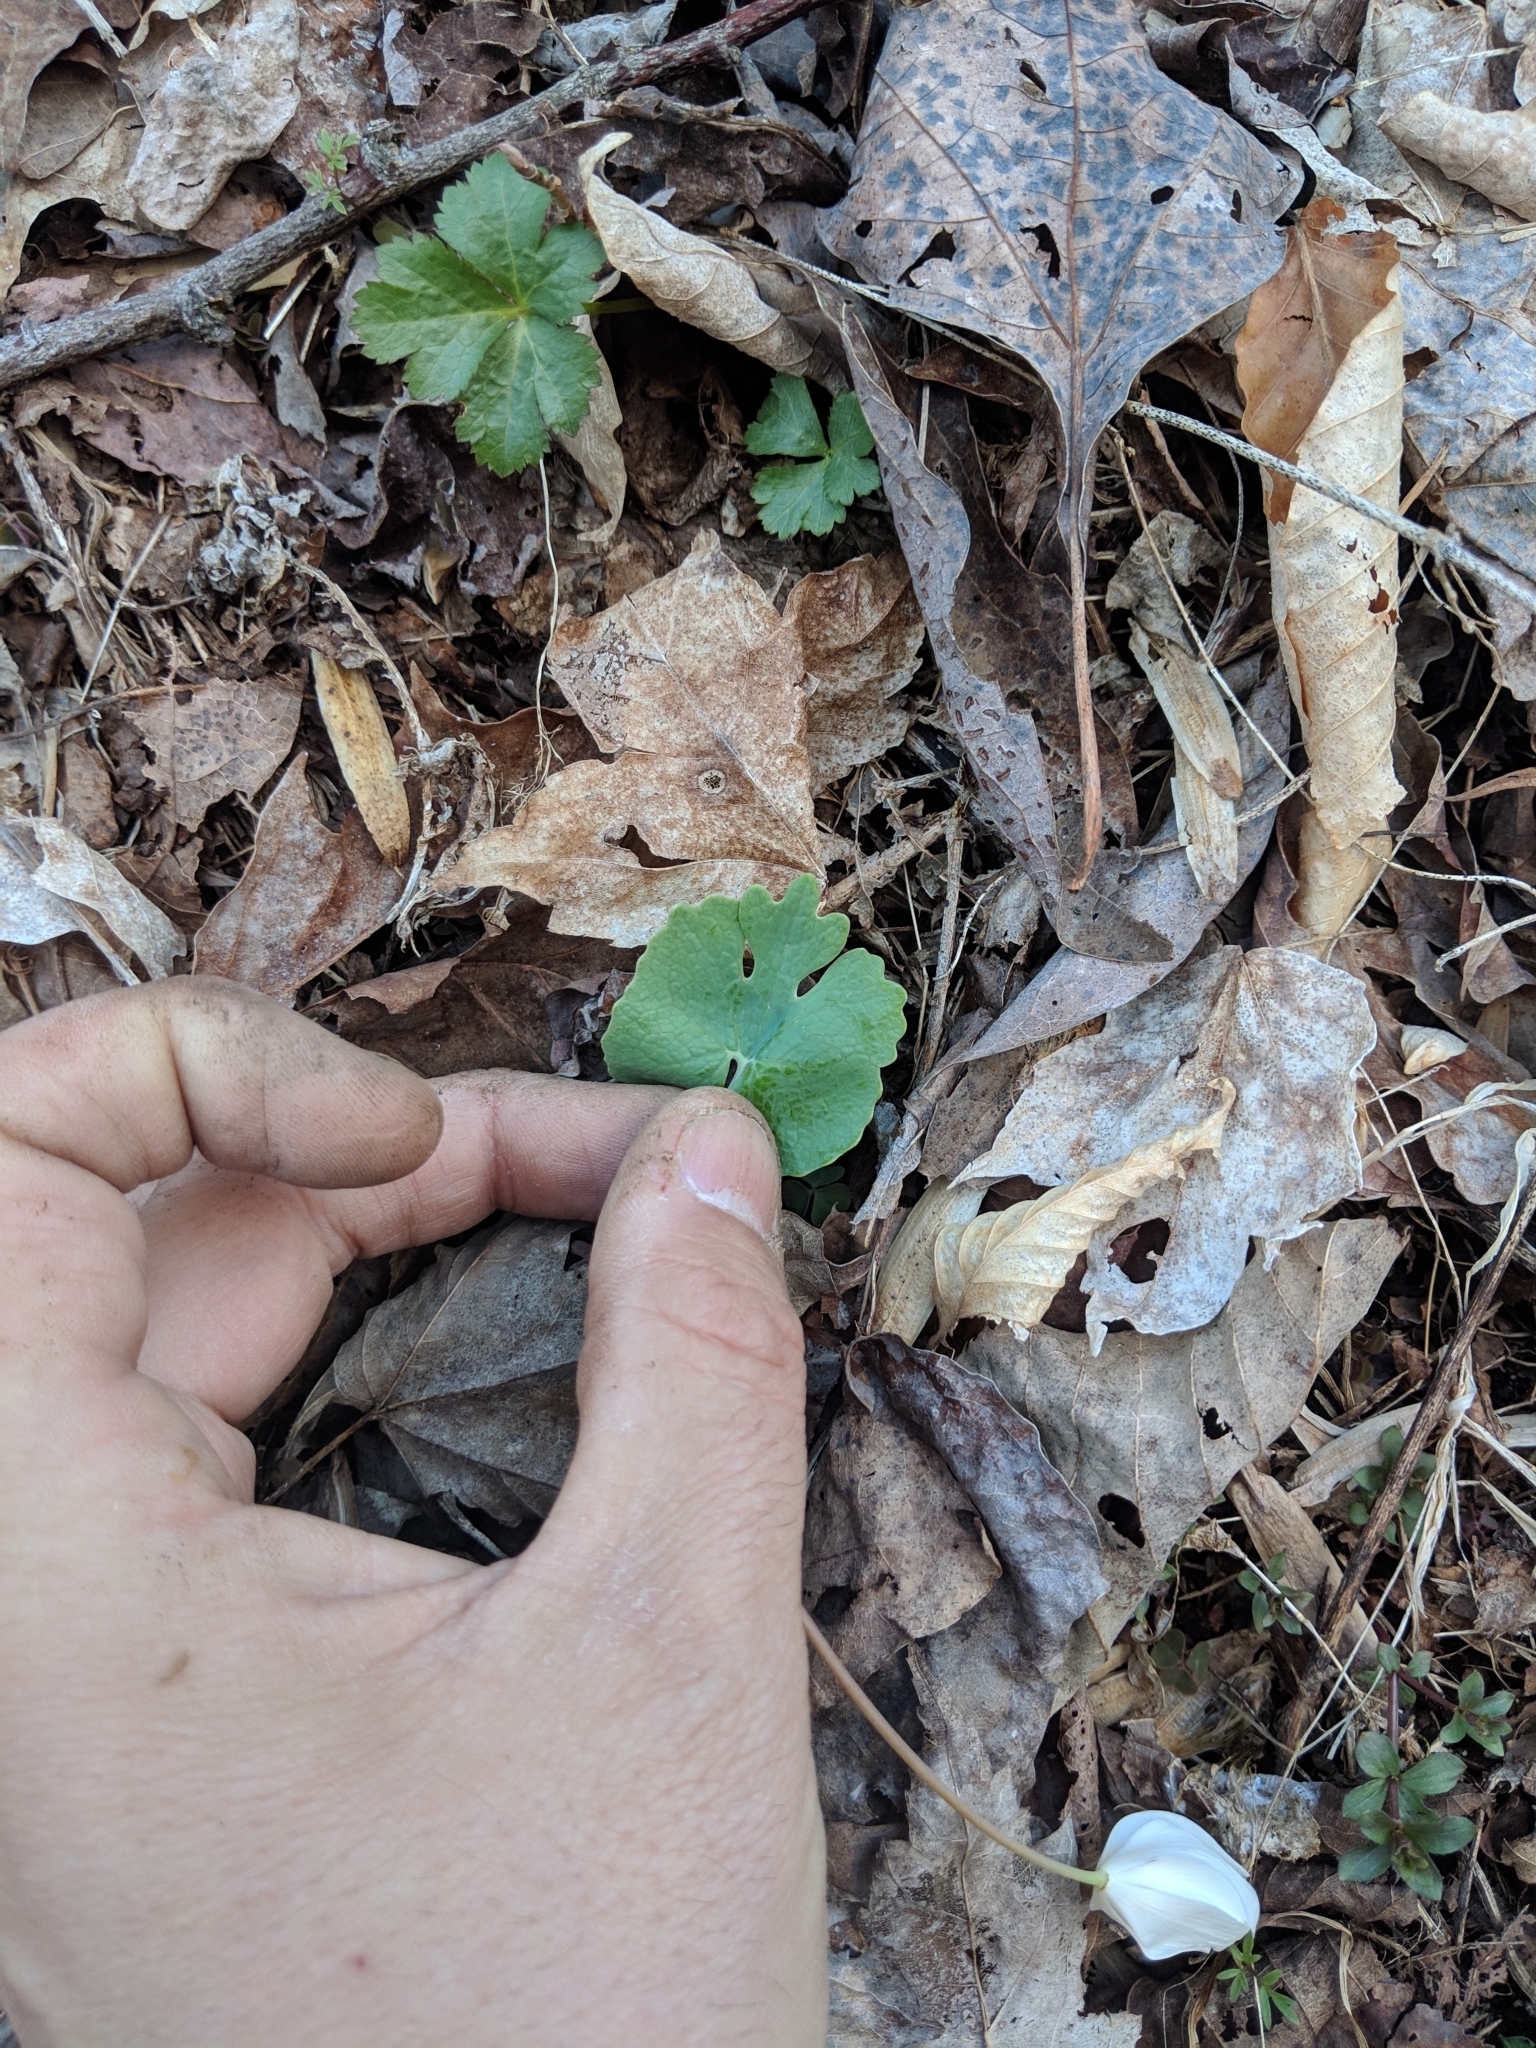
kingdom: Plantae
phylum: Tracheophyta
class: Magnoliopsida
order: Ranunculales
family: Papaveraceae
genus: Sanguinaria
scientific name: Sanguinaria canadensis
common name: Bloodroot
